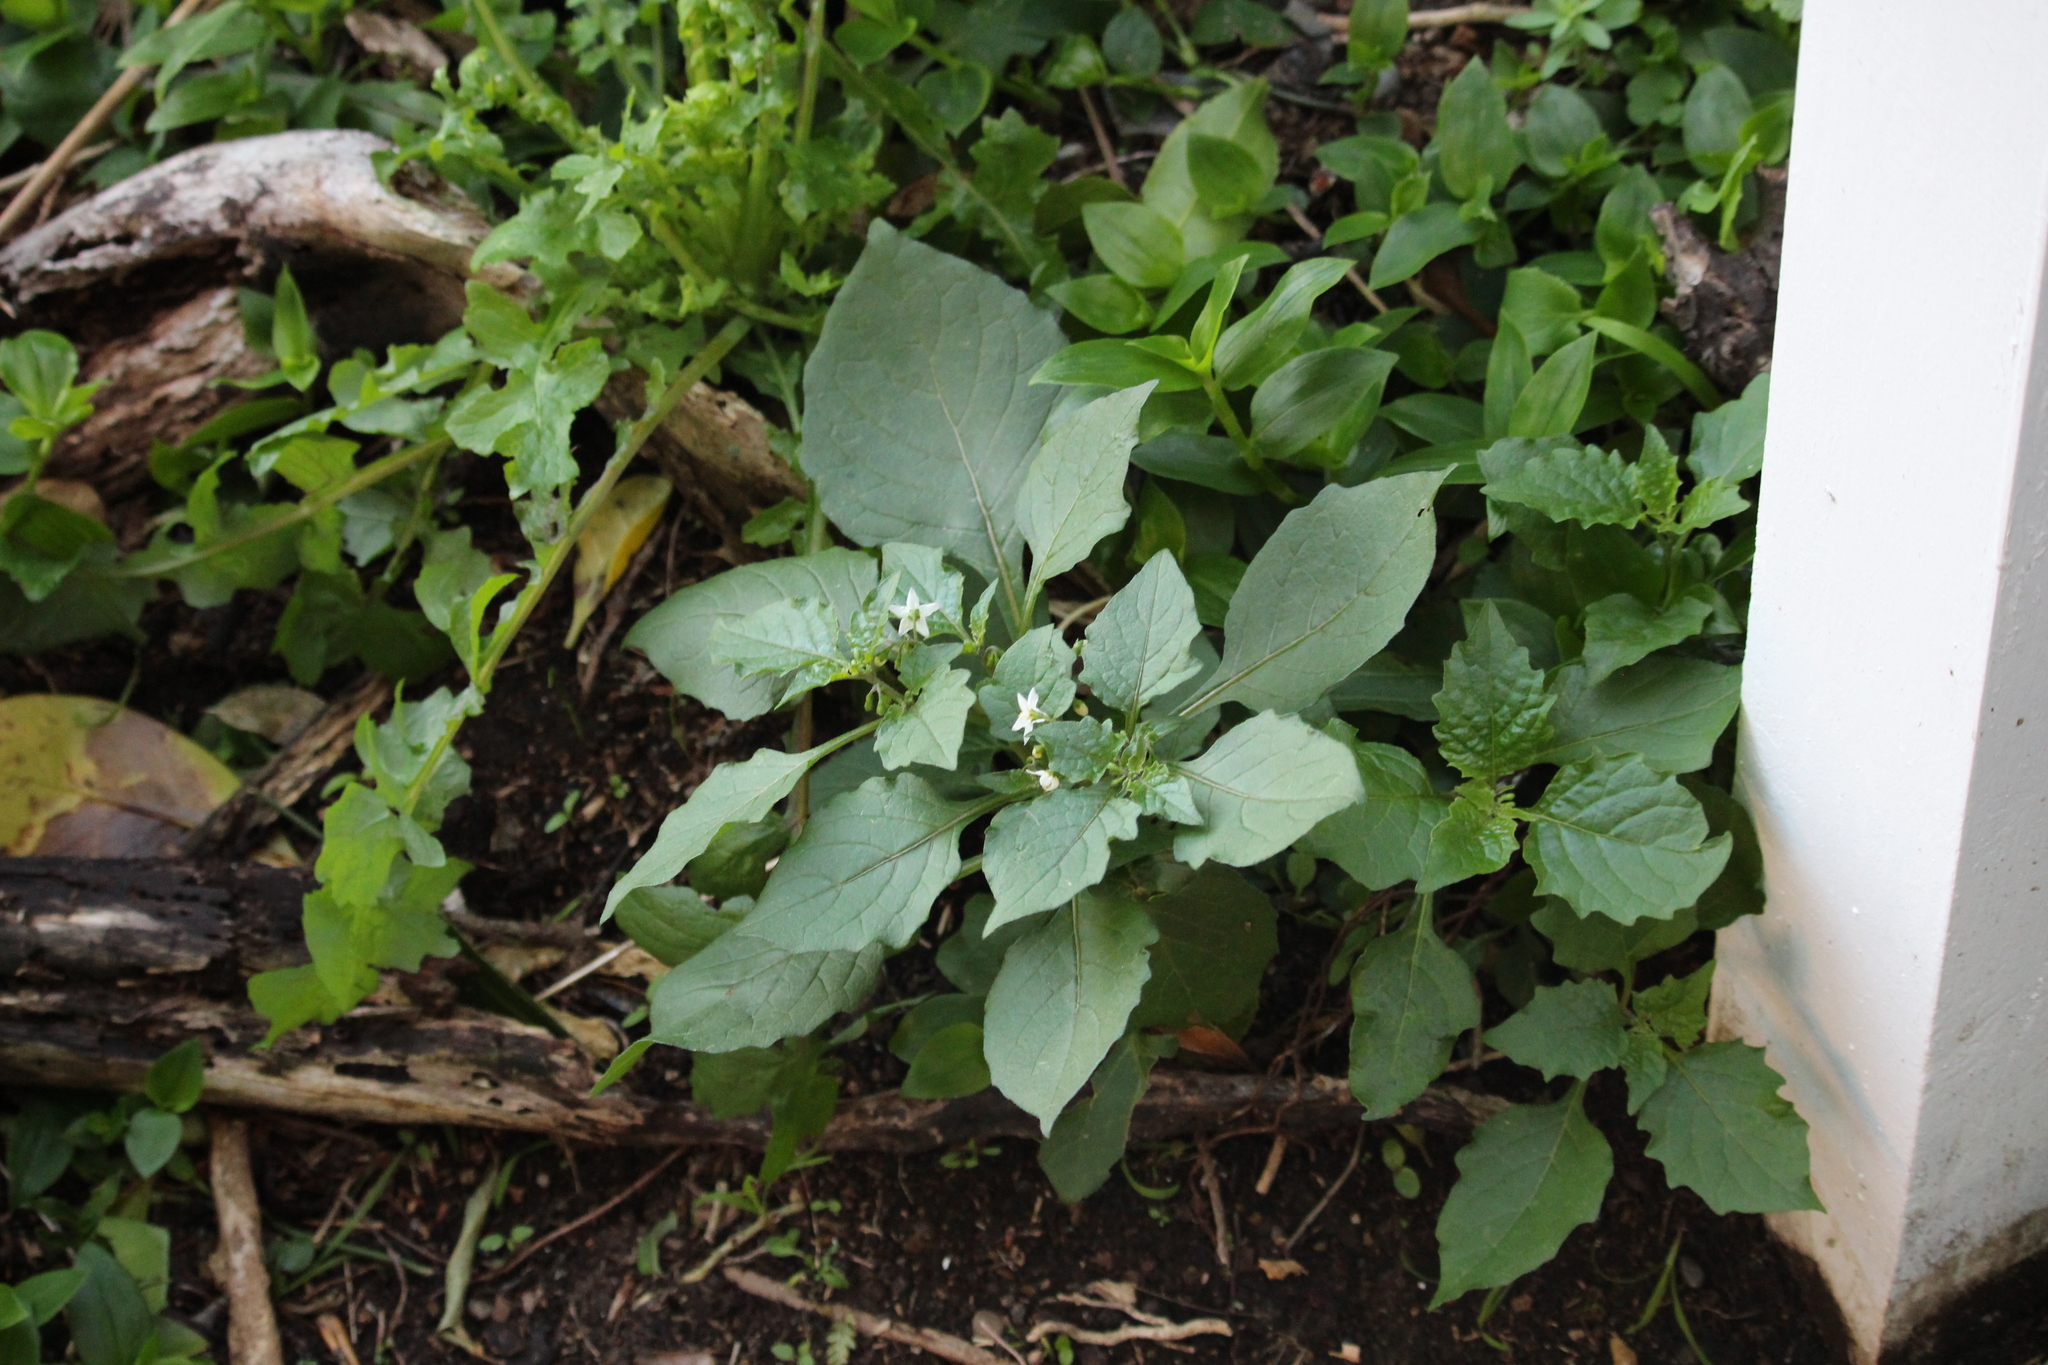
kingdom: Plantae
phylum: Tracheophyta
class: Magnoliopsida
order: Solanales
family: Solanaceae
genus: Solanum
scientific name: Solanum nigrum
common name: Black nightshade
